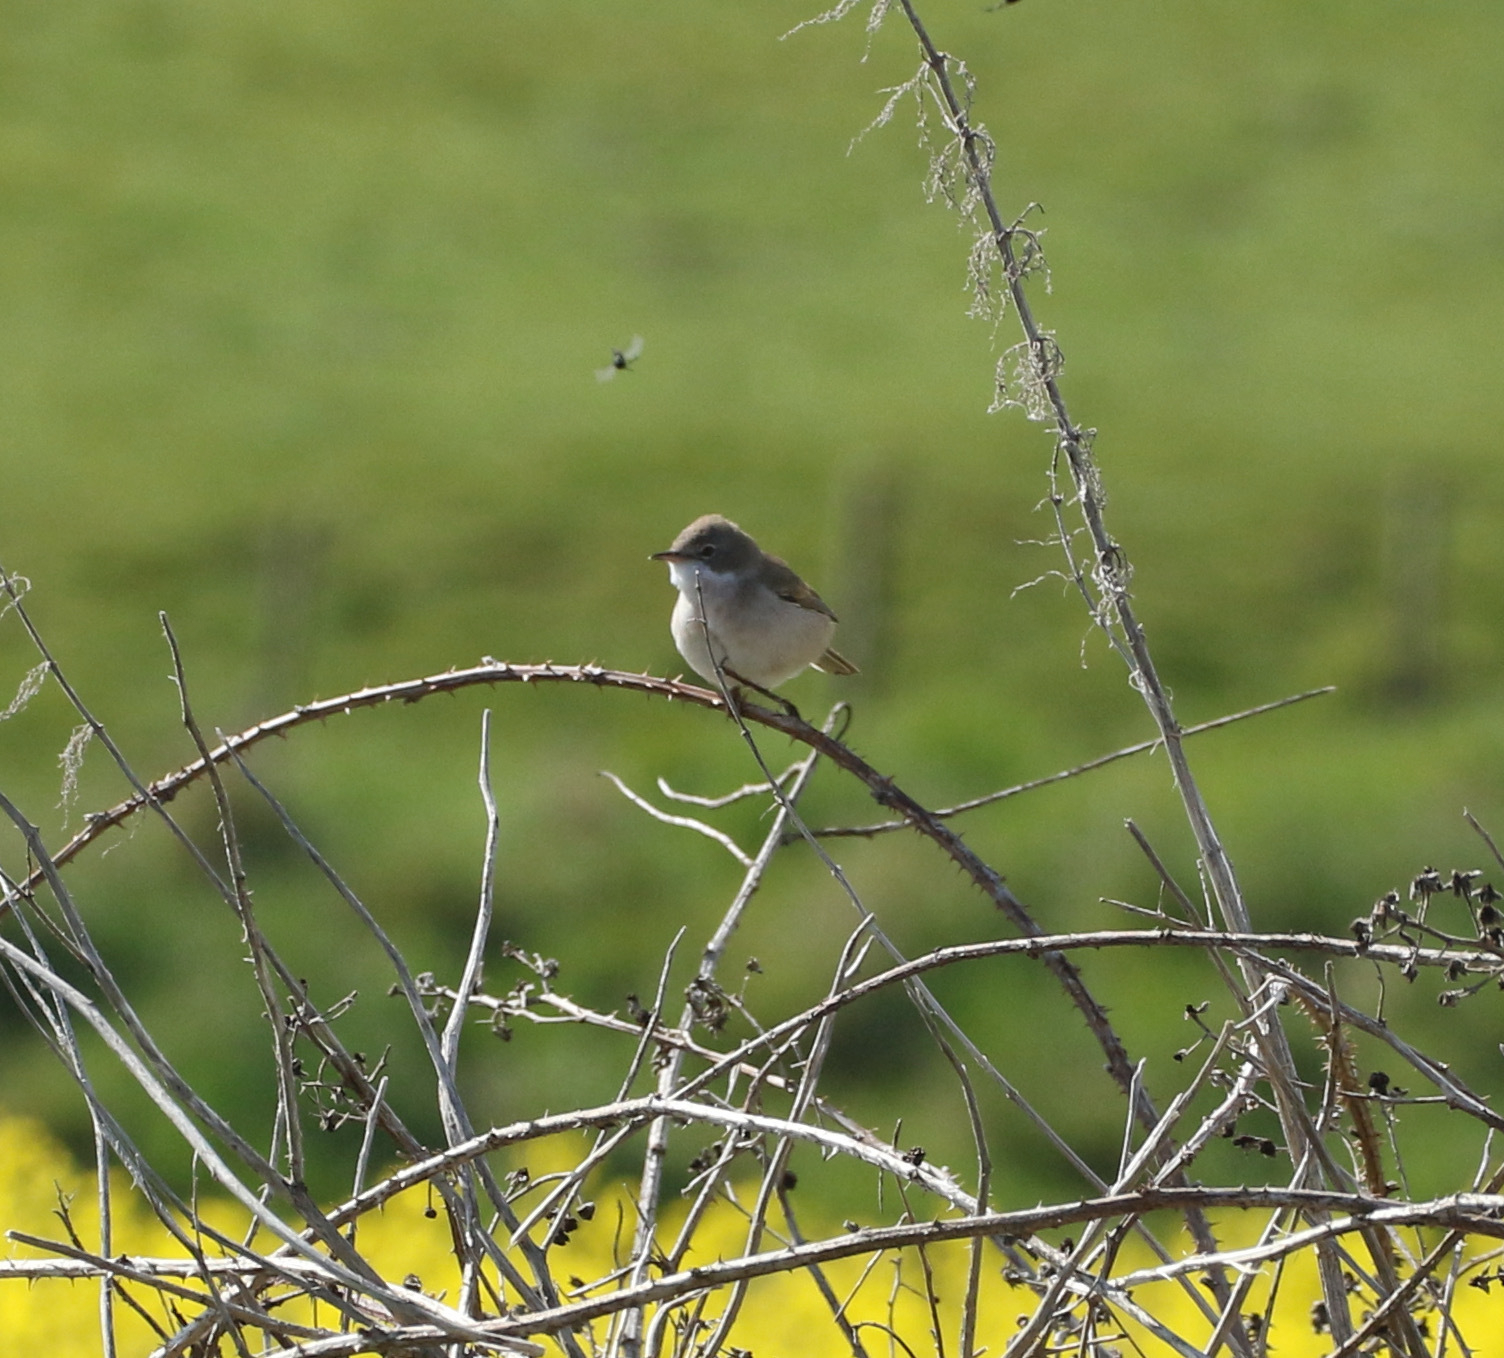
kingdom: Animalia
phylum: Chordata
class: Aves
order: Passeriformes
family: Sylviidae
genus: Sylvia
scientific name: Sylvia communis
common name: Common whitethroat
